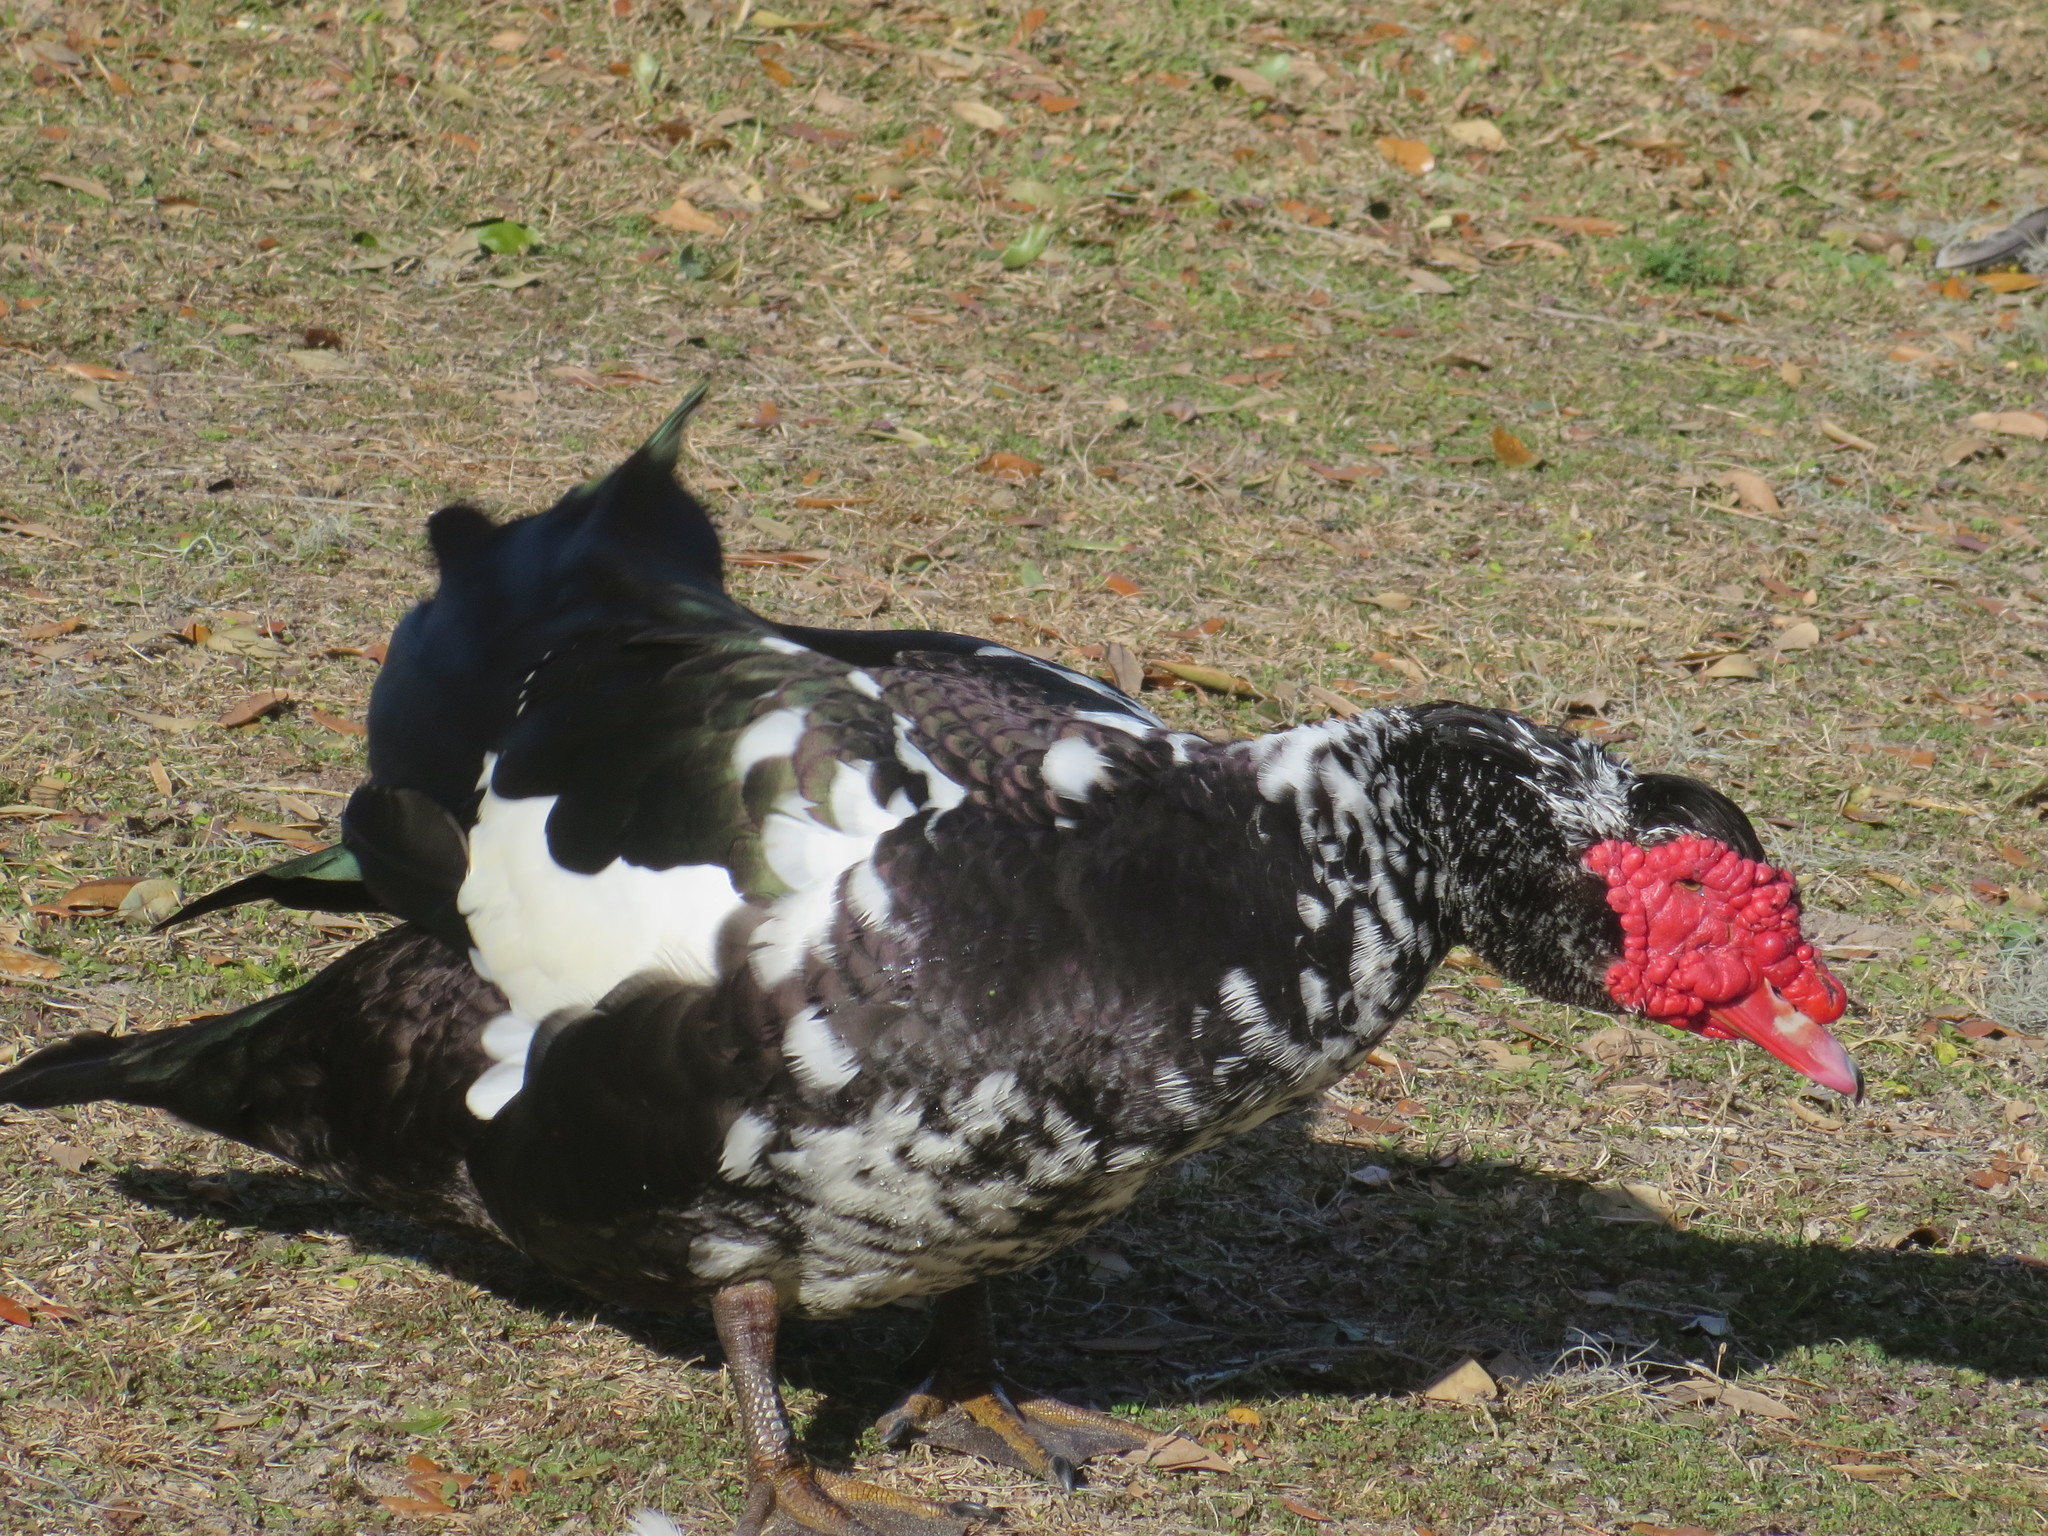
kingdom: Animalia
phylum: Chordata
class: Aves
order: Anseriformes
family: Anatidae
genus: Cairina
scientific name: Cairina moschata
